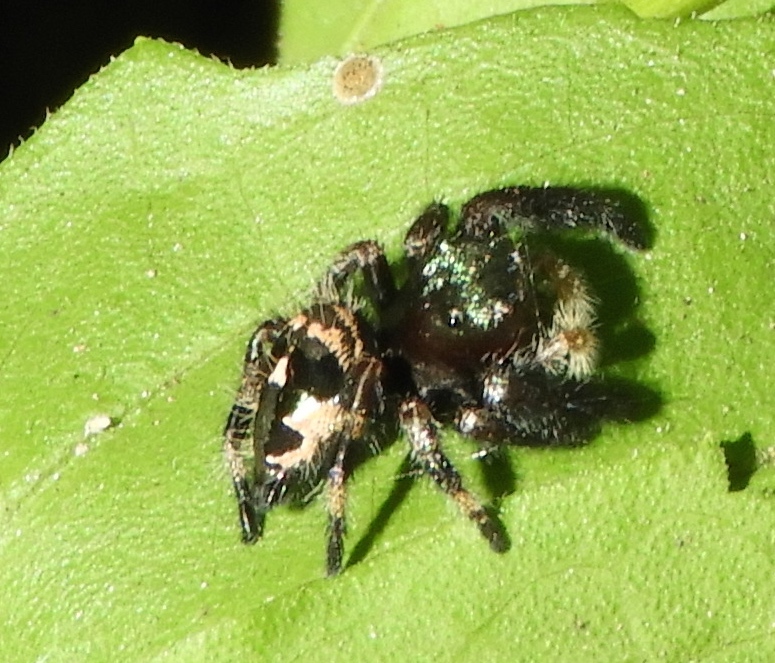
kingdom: Animalia
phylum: Arthropoda
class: Arachnida
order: Araneae
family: Salticidae
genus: Phidippus
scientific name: Phidippus maddisoni
